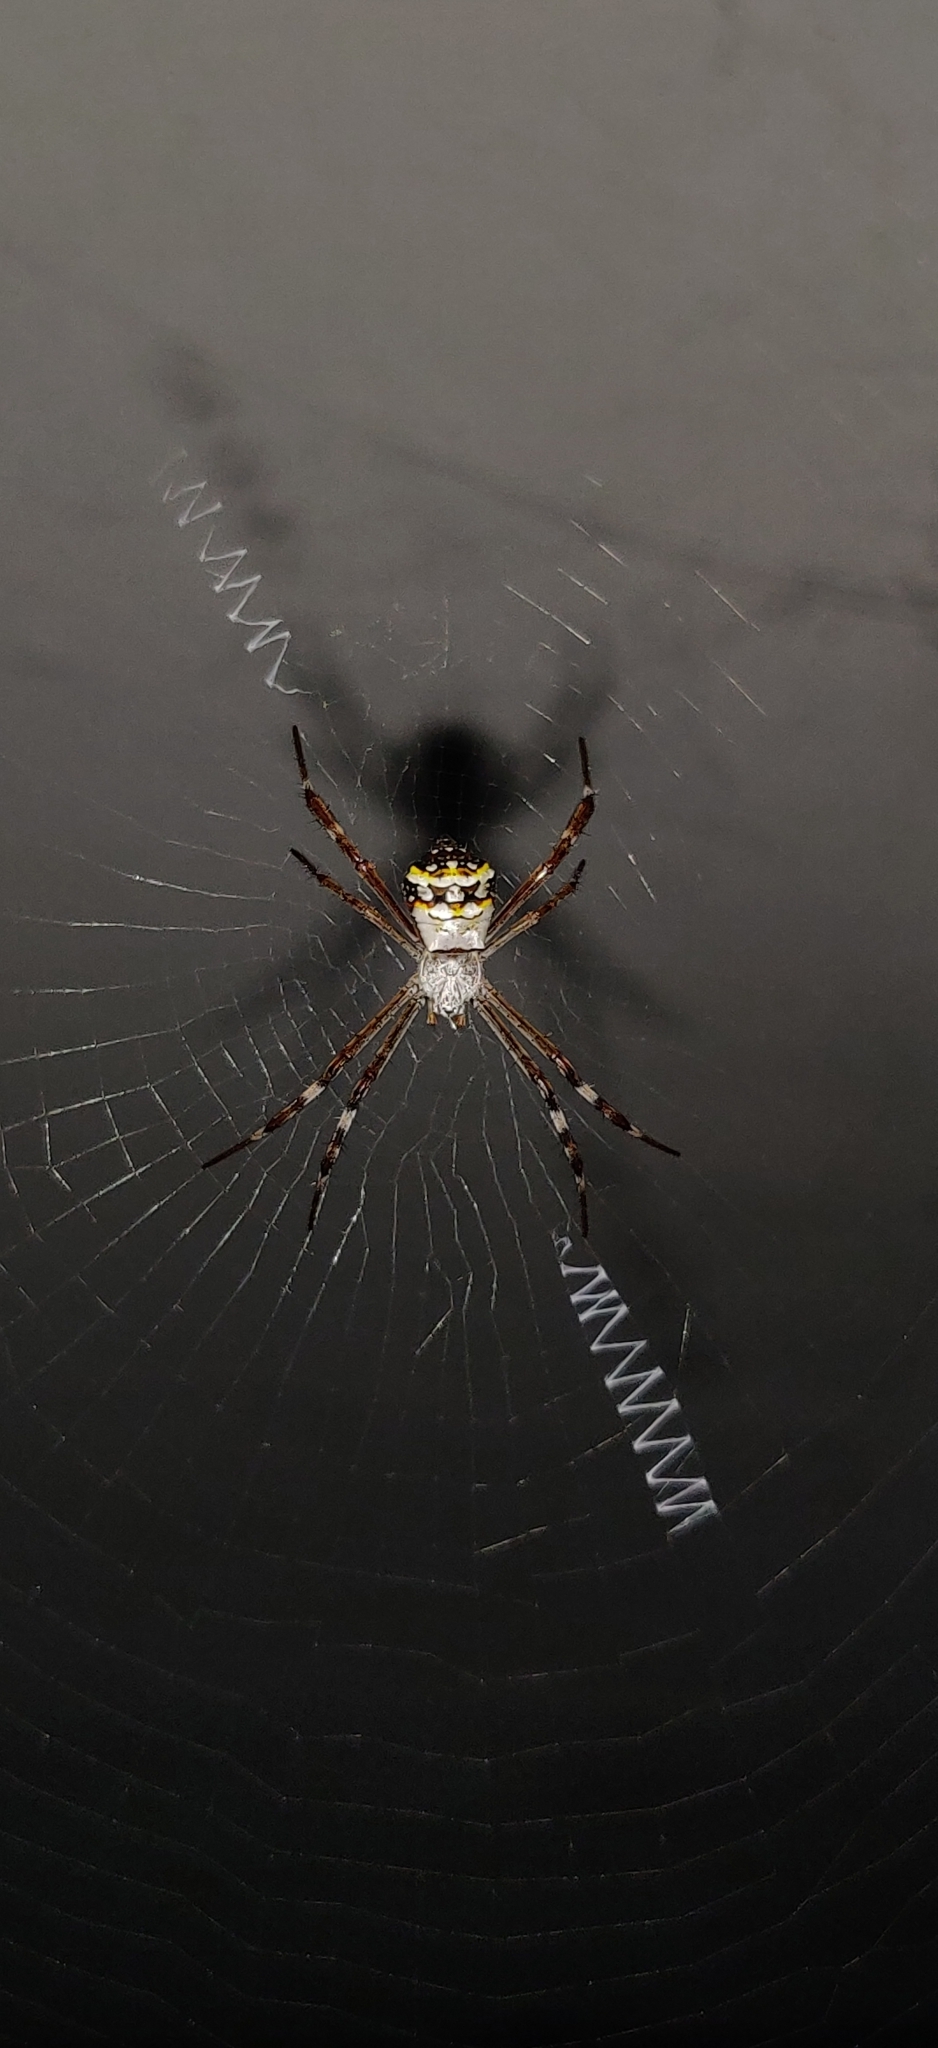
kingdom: Animalia
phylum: Arthropoda
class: Arachnida
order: Araneae
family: Araneidae
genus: Argiope
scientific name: Argiope anasuja
